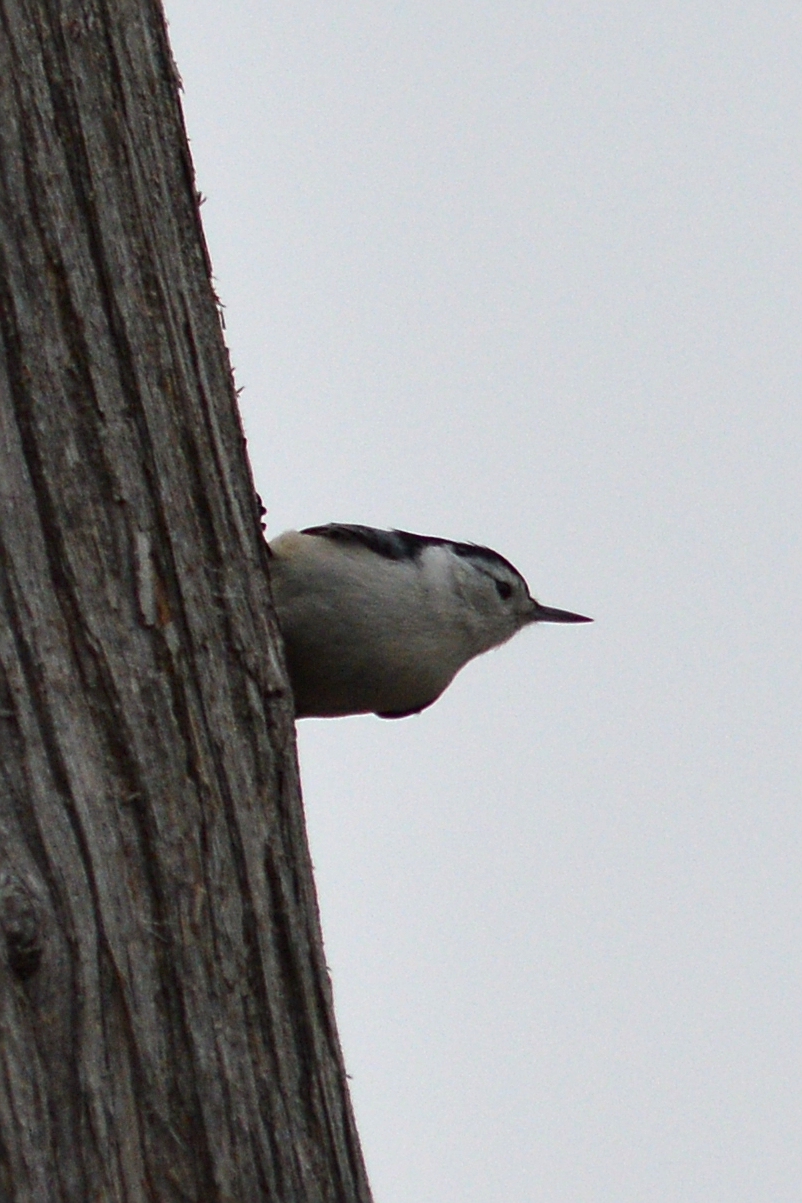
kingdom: Animalia
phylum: Chordata
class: Aves
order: Passeriformes
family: Sittidae
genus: Sitta
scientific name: Sitta carolinensis
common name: White-breasted nuthatch
